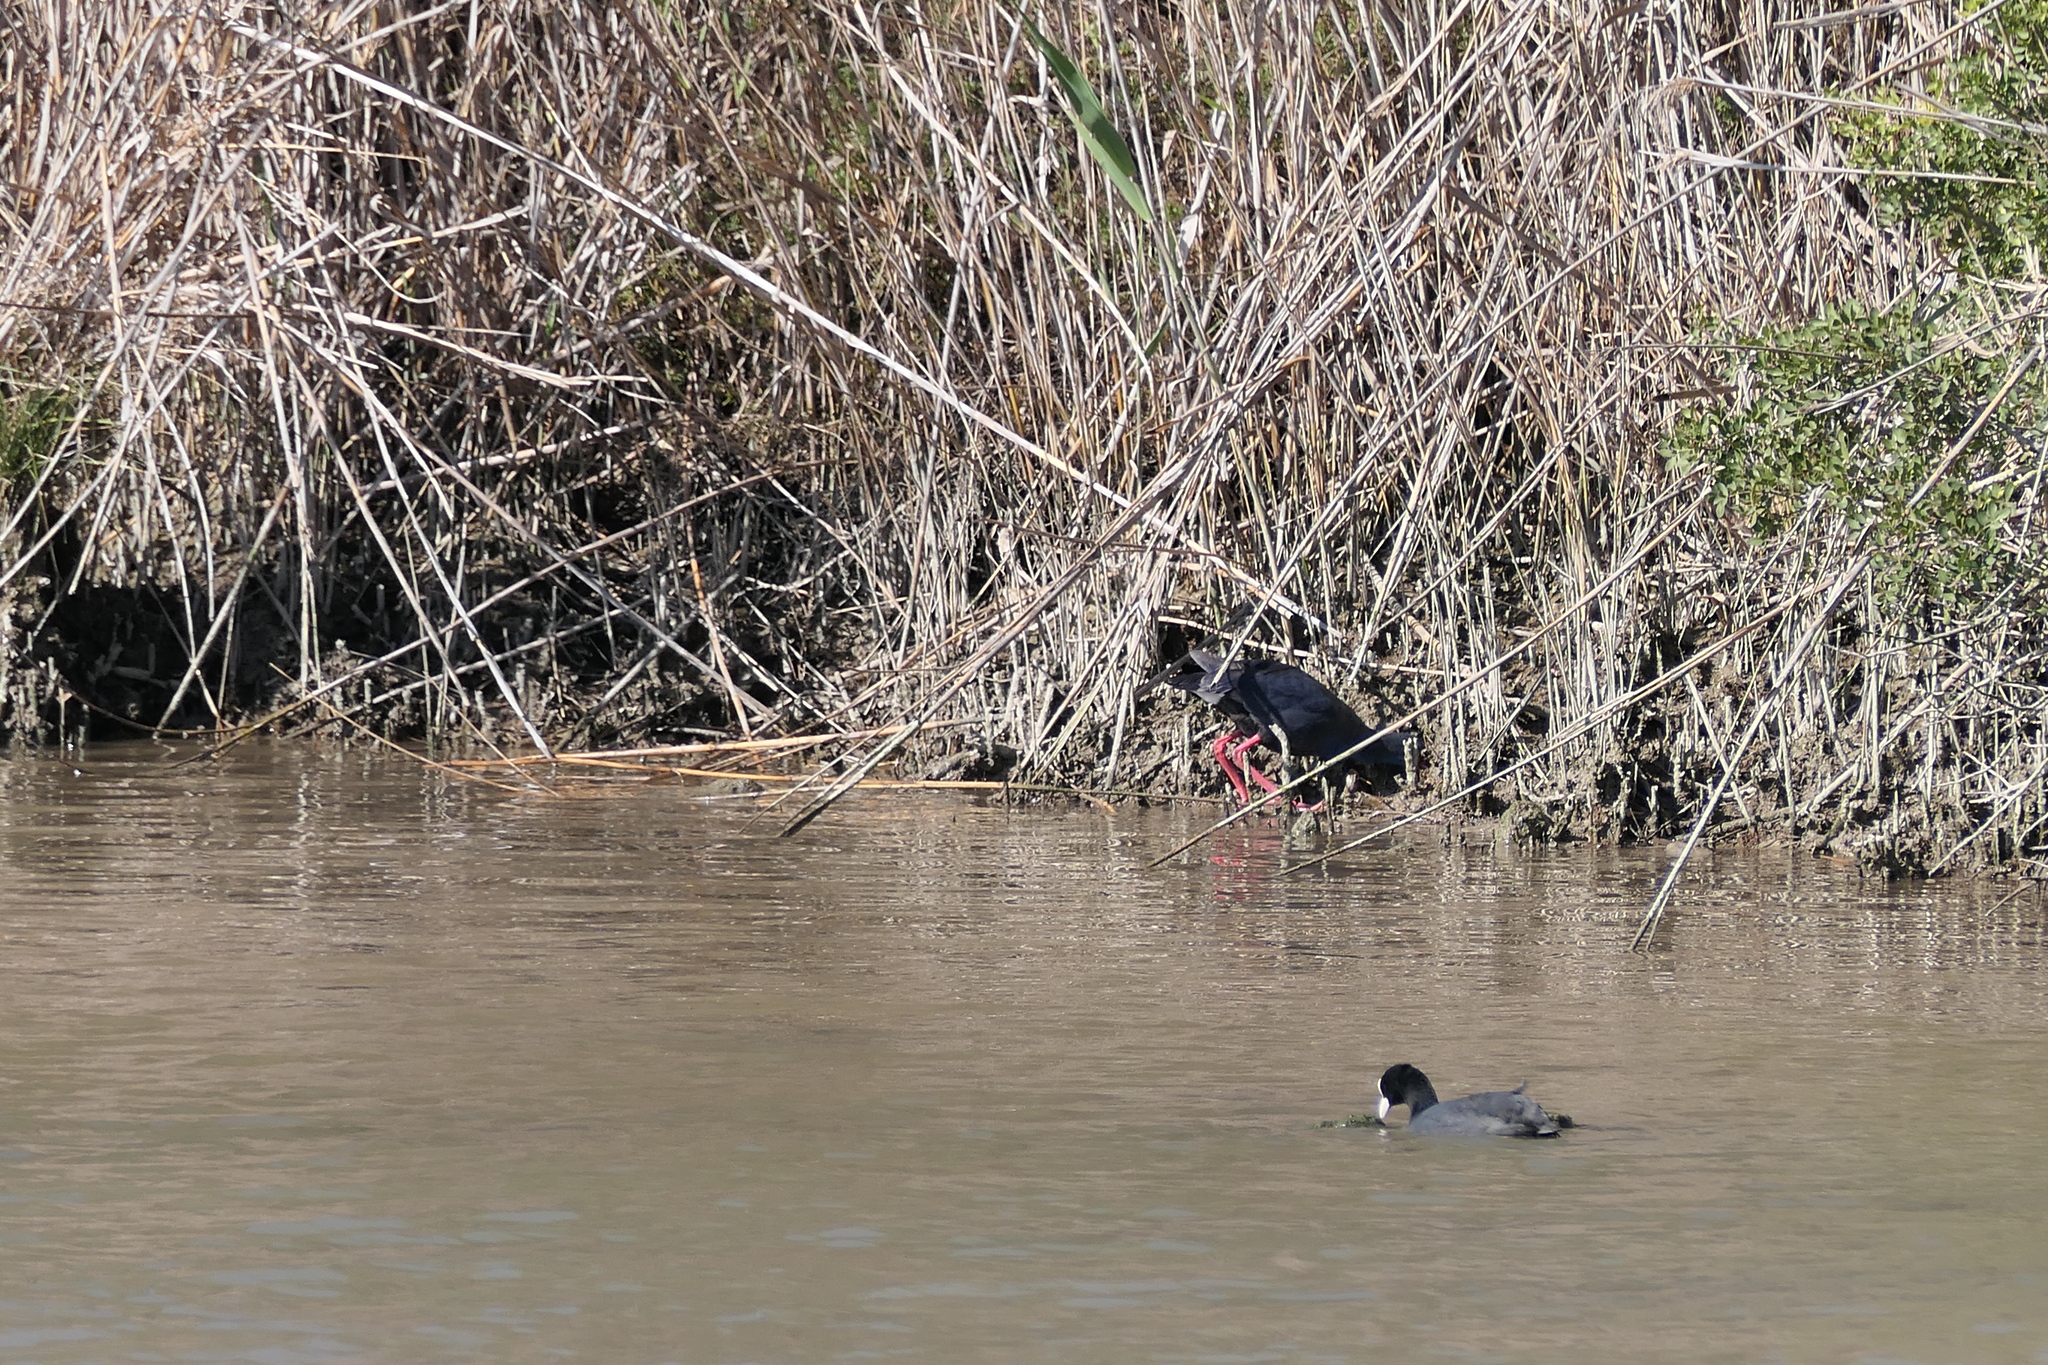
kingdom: Animalia
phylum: Chordata
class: Aves
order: Gruiformes
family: Rallidae
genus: Fulica
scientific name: Fulica atra
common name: Eurasian coot
